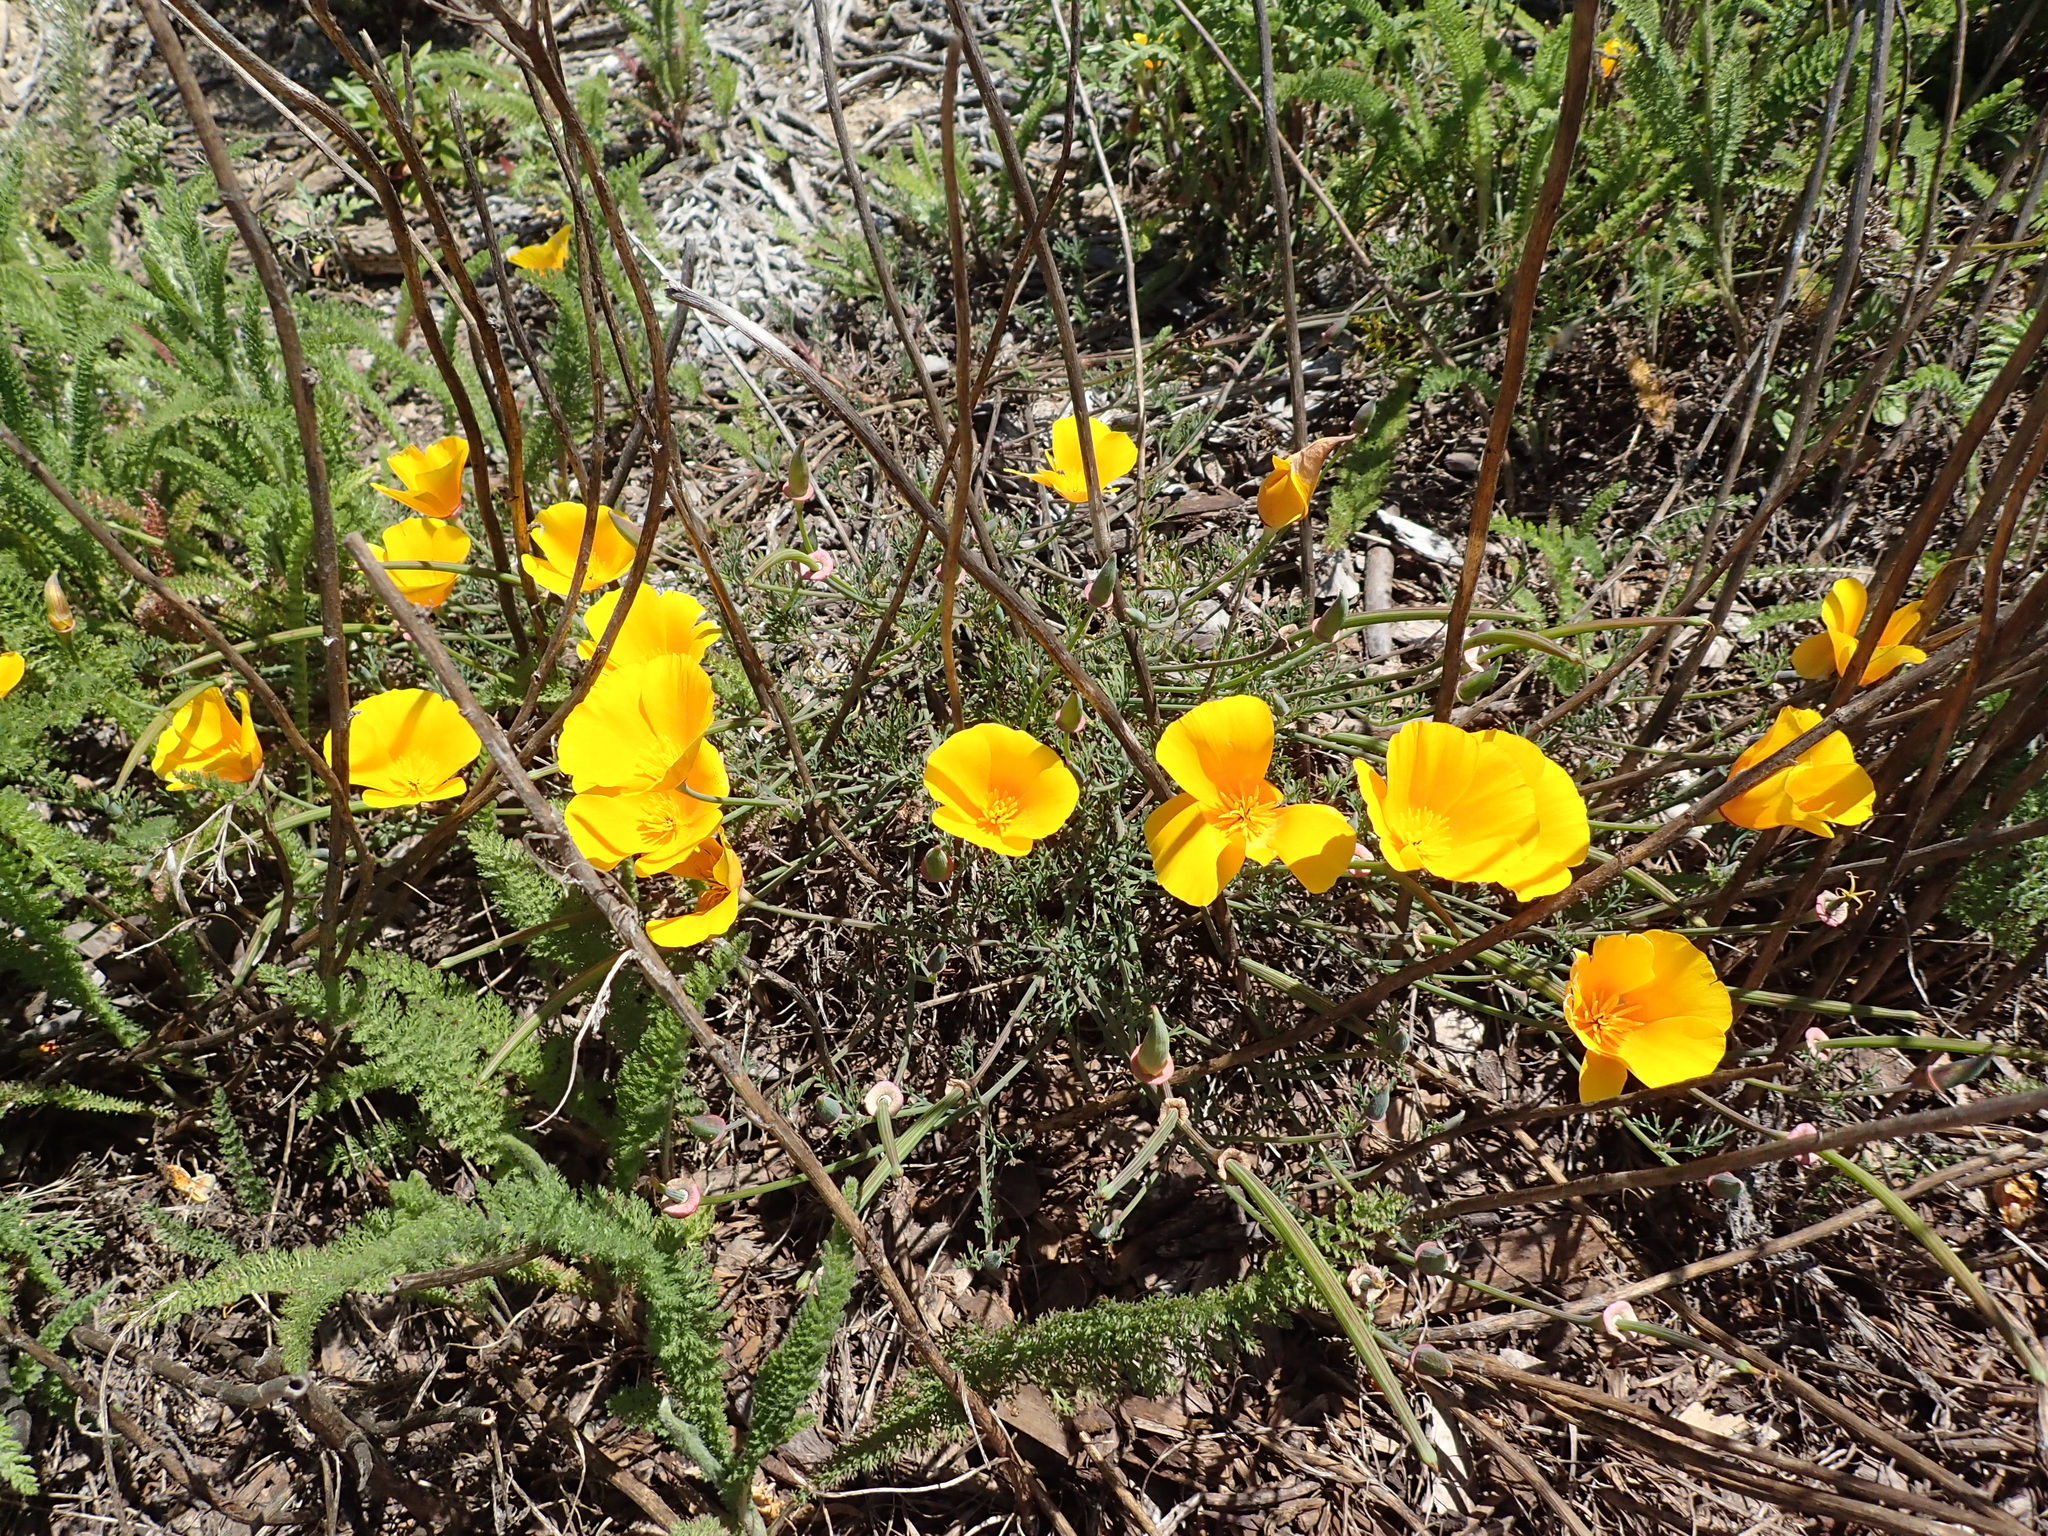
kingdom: Plantae
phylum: Tracheophyta
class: Magnoliopsida
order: Ranunculales
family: Papaveraceae
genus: Eschscholzia
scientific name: Eschscholzia californica
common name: California poppy
